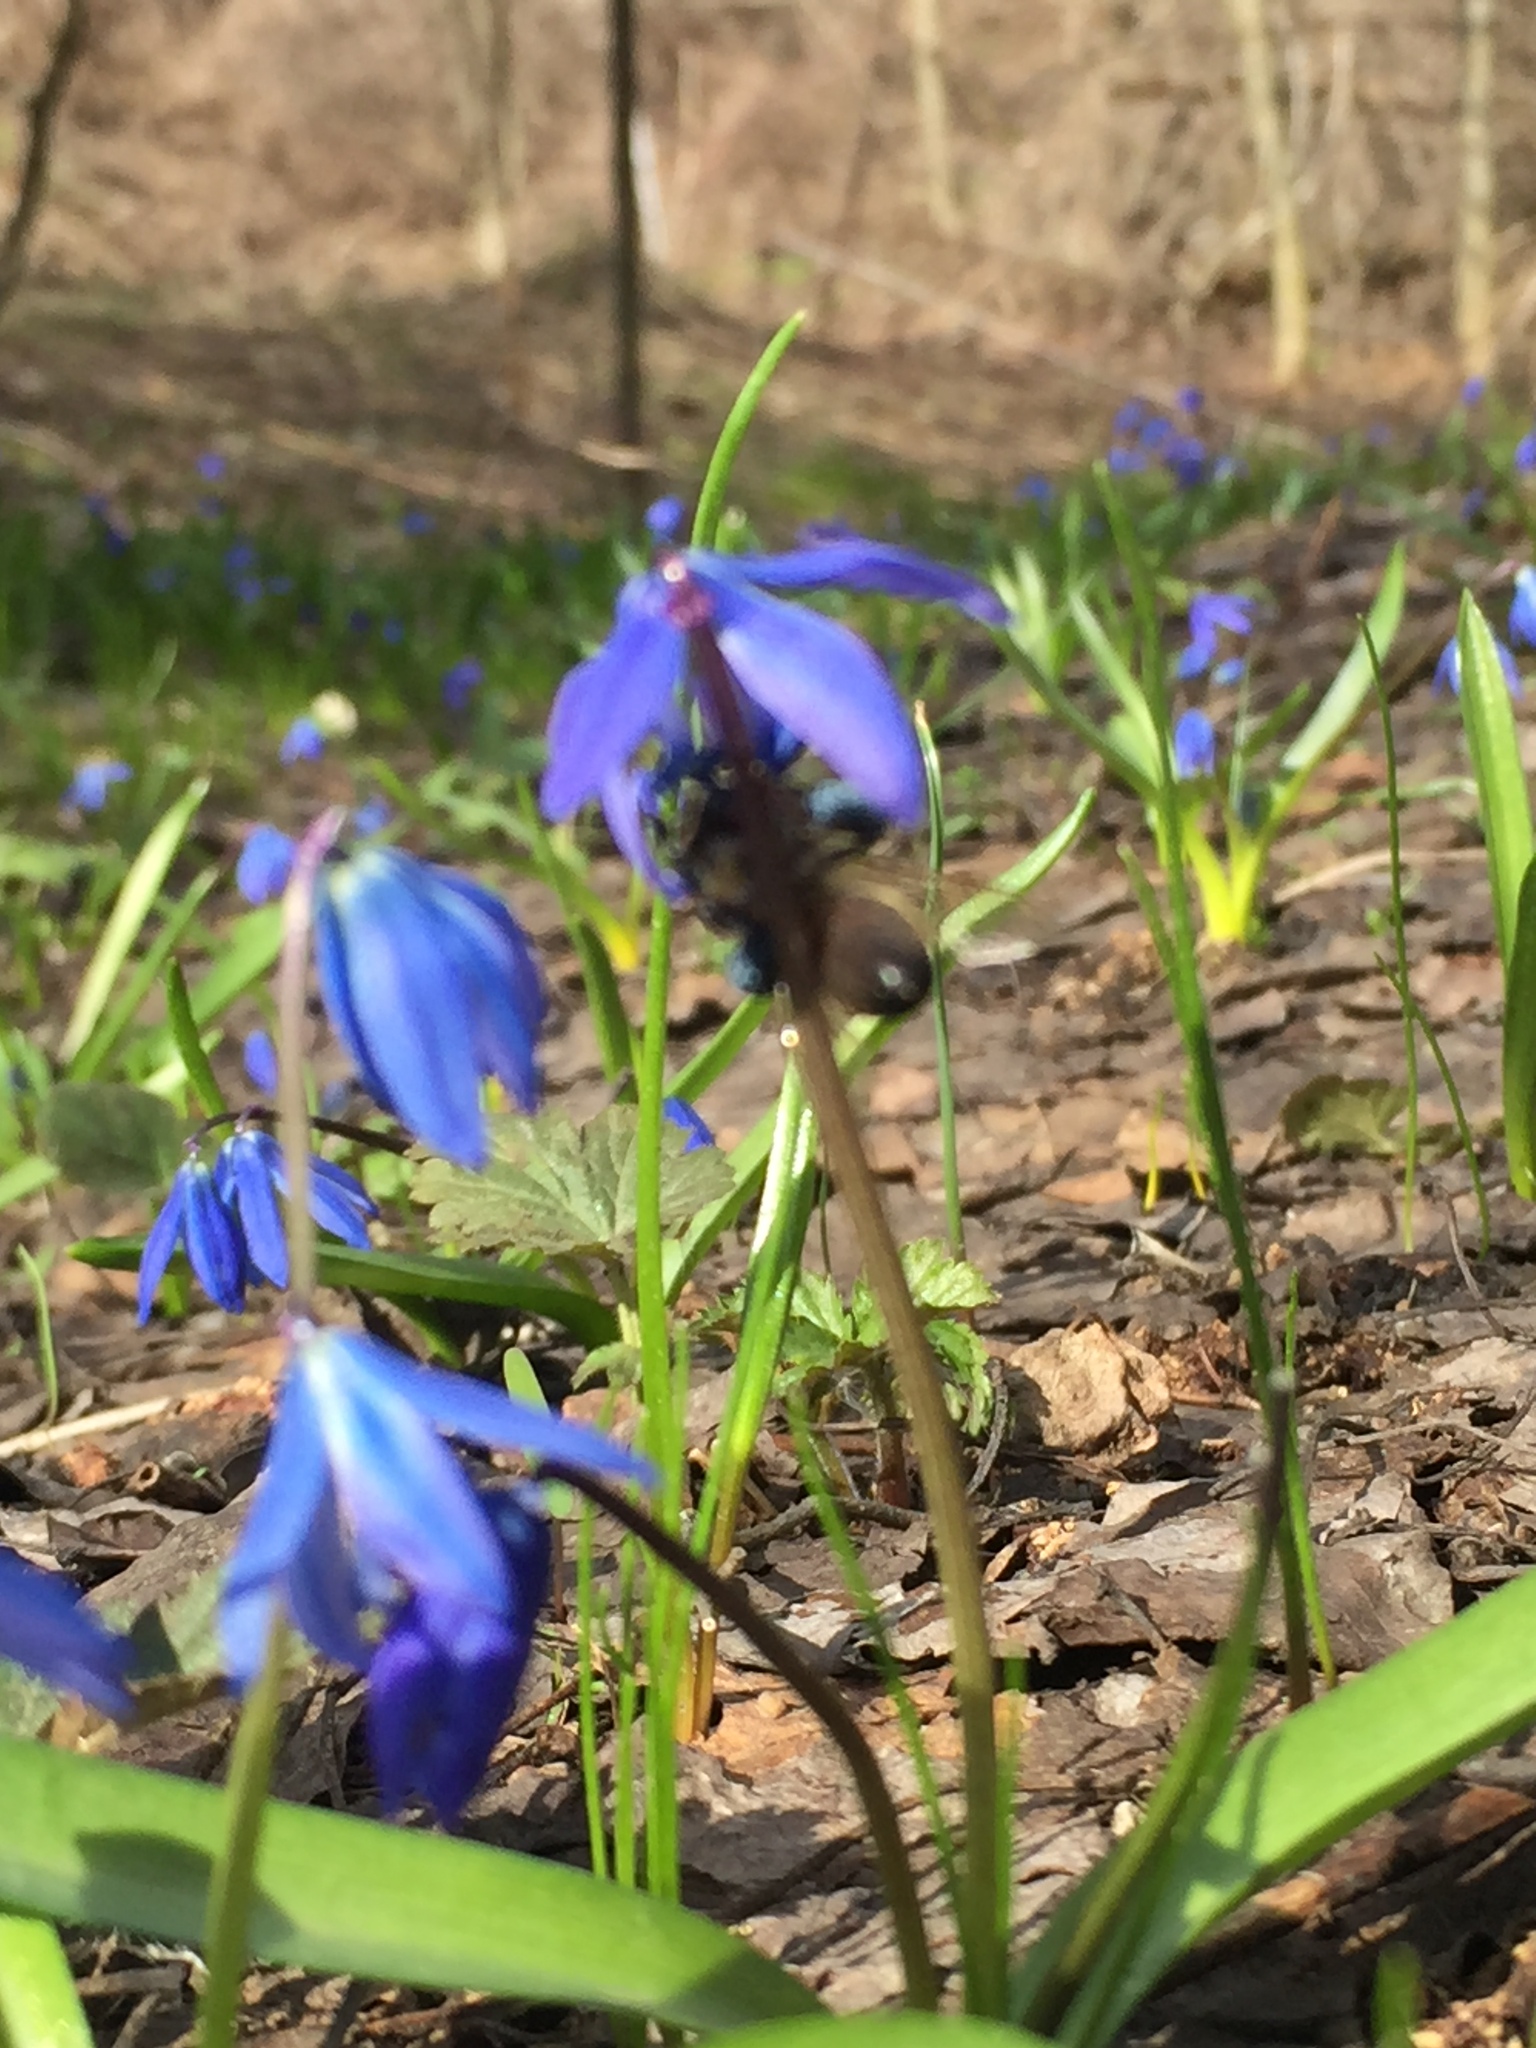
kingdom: Plantae
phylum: Tracheophyta
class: Liliopsida
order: Asparagales
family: Asparagaceae
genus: Scilla
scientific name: Scilla siberica
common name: Siberian squill
